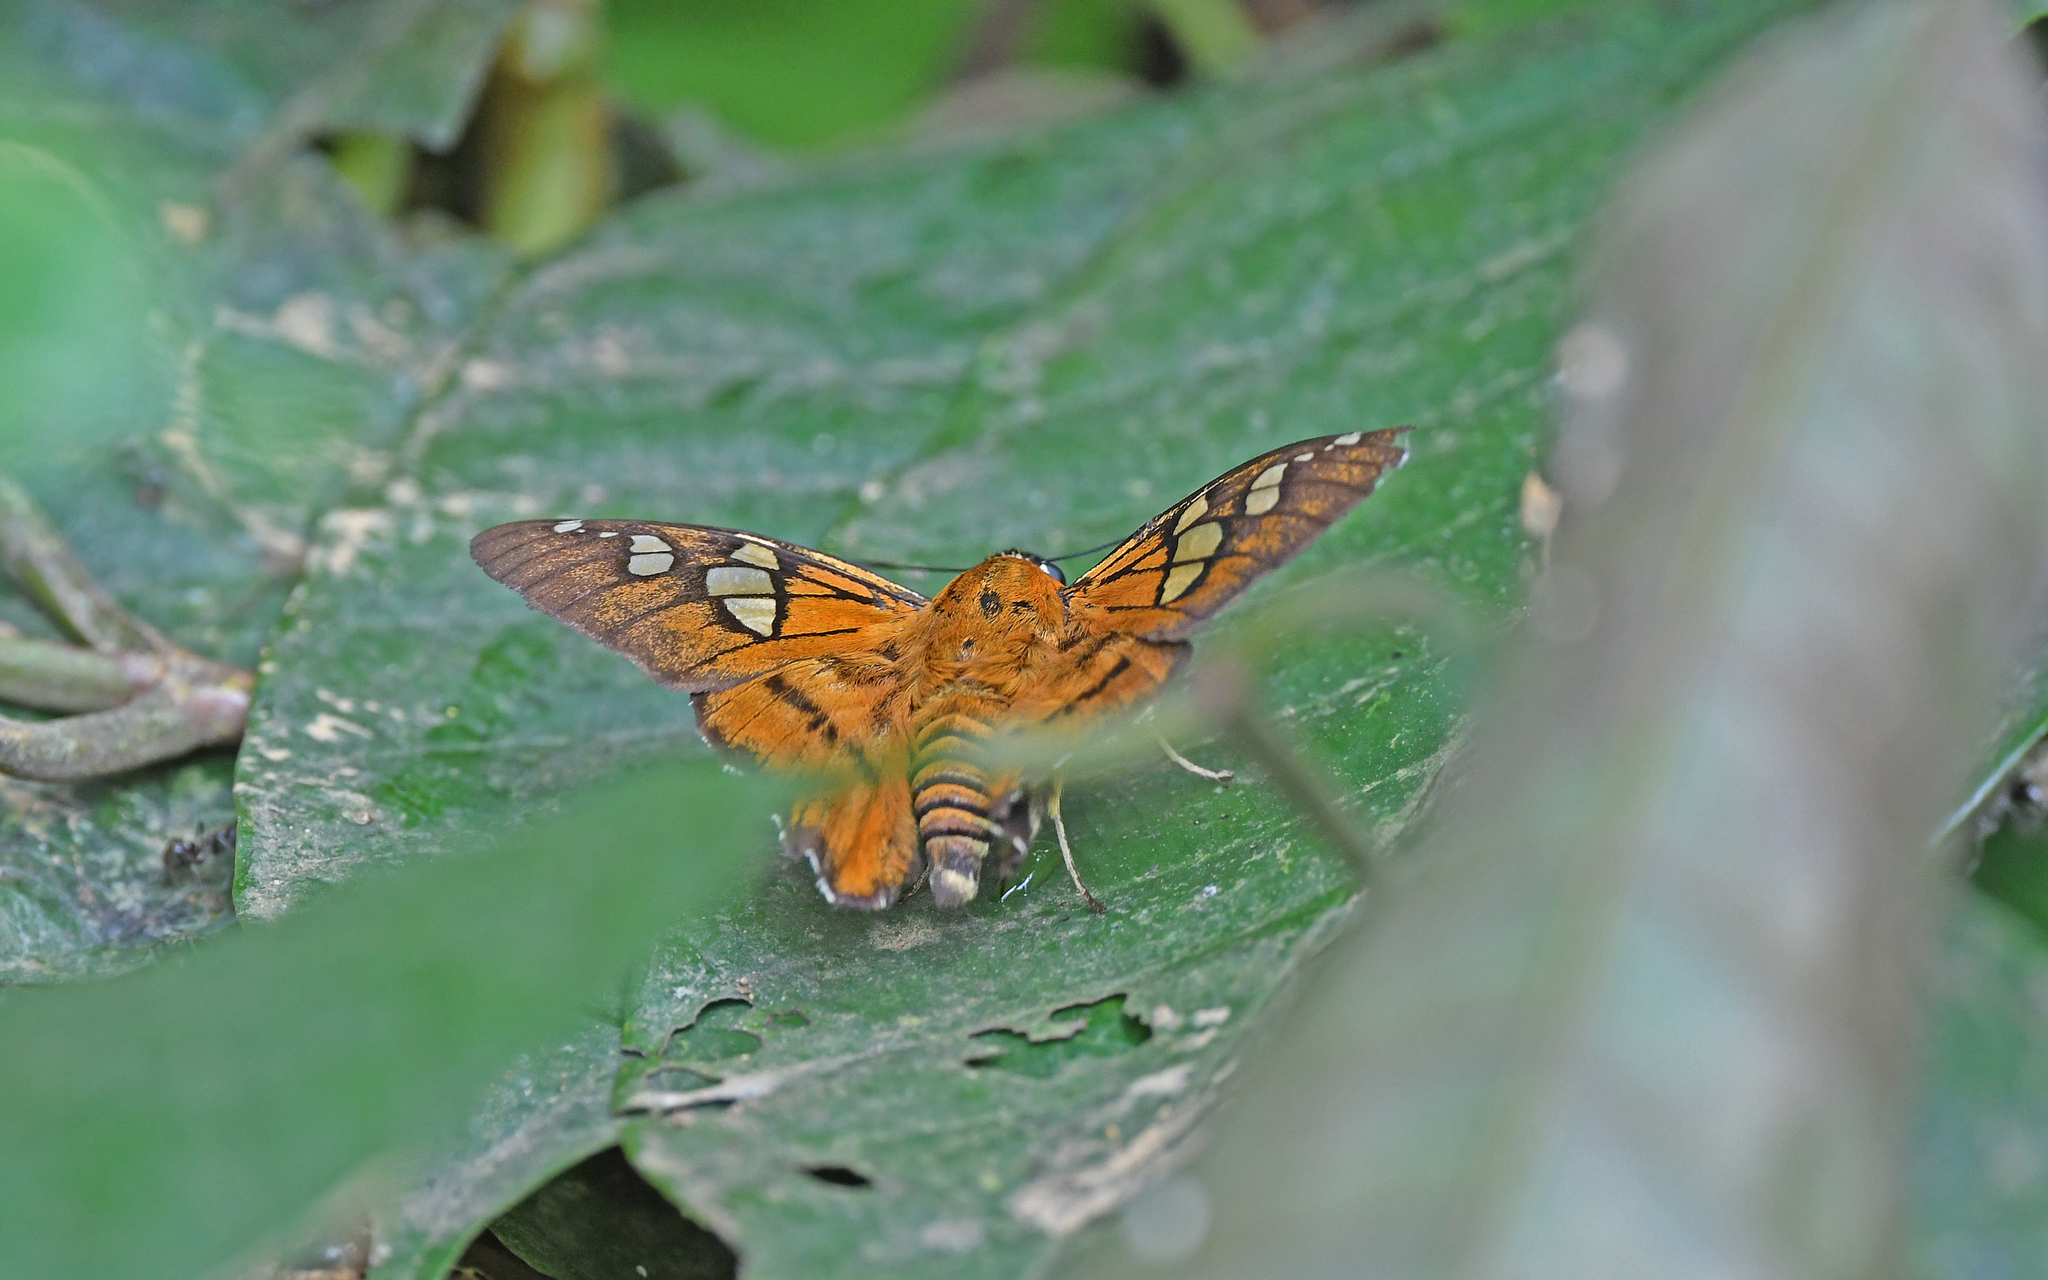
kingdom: Animalia
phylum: Arthropoda
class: Insecta
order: Lepidoptera
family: Hesperiidae
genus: Myscelus
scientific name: Myscelus epimachia
